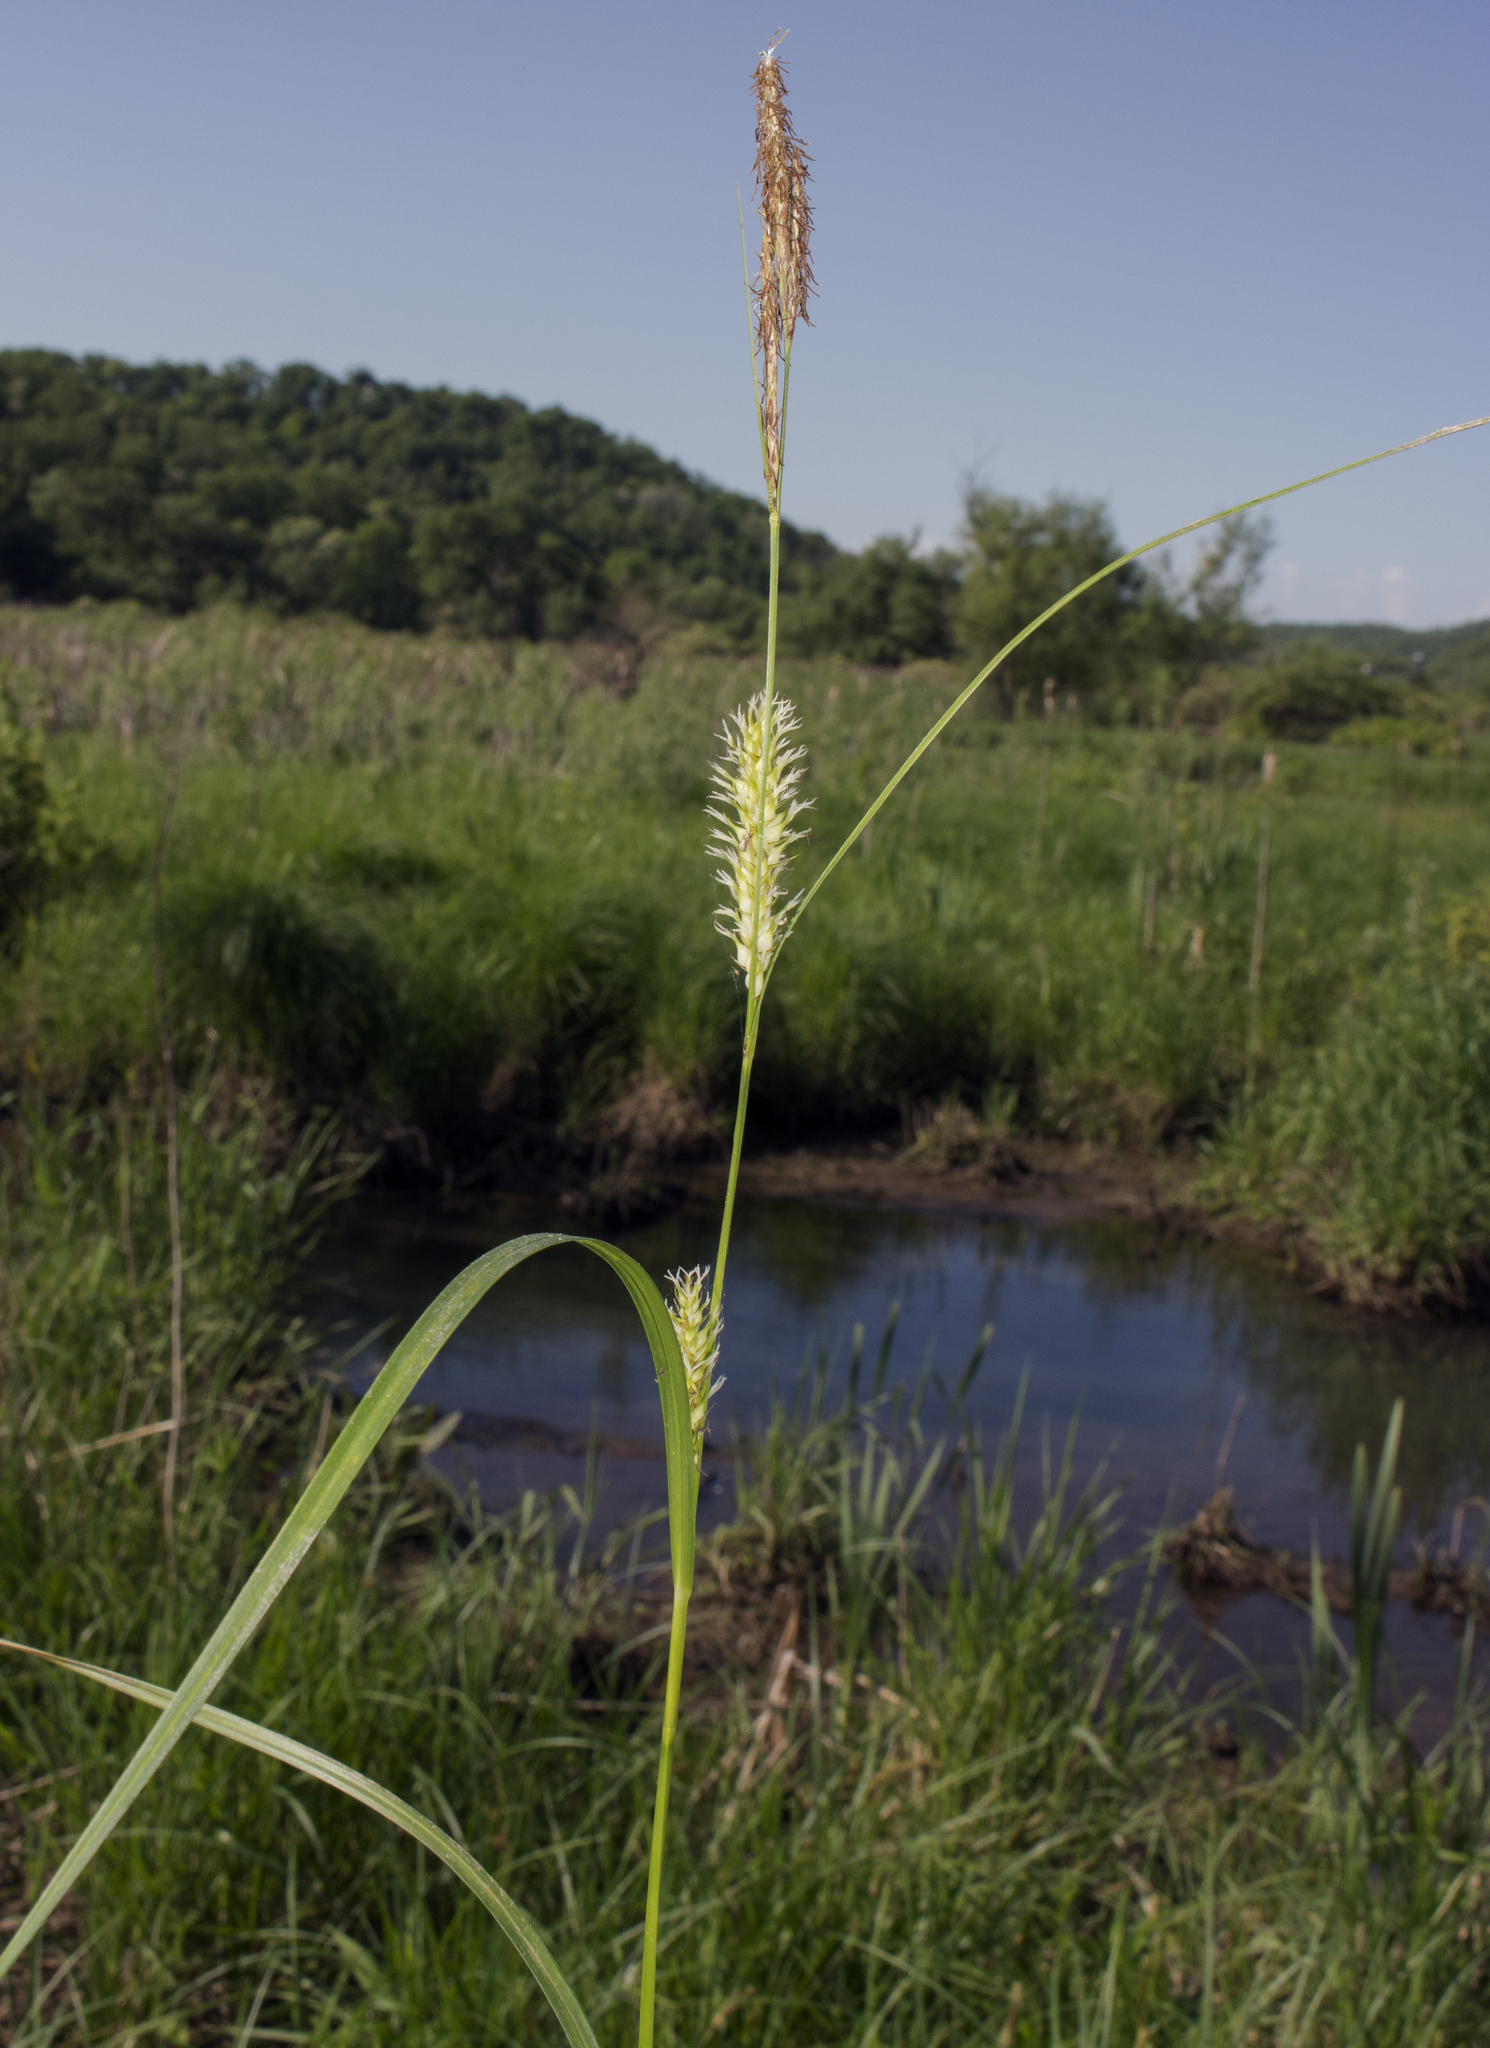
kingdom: Plantae
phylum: Tracheophyta
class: Liliopsida
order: Poales
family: Cyperaceae
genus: Carex
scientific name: Carex trichocarpa
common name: Hairy-fruited lake sedge
